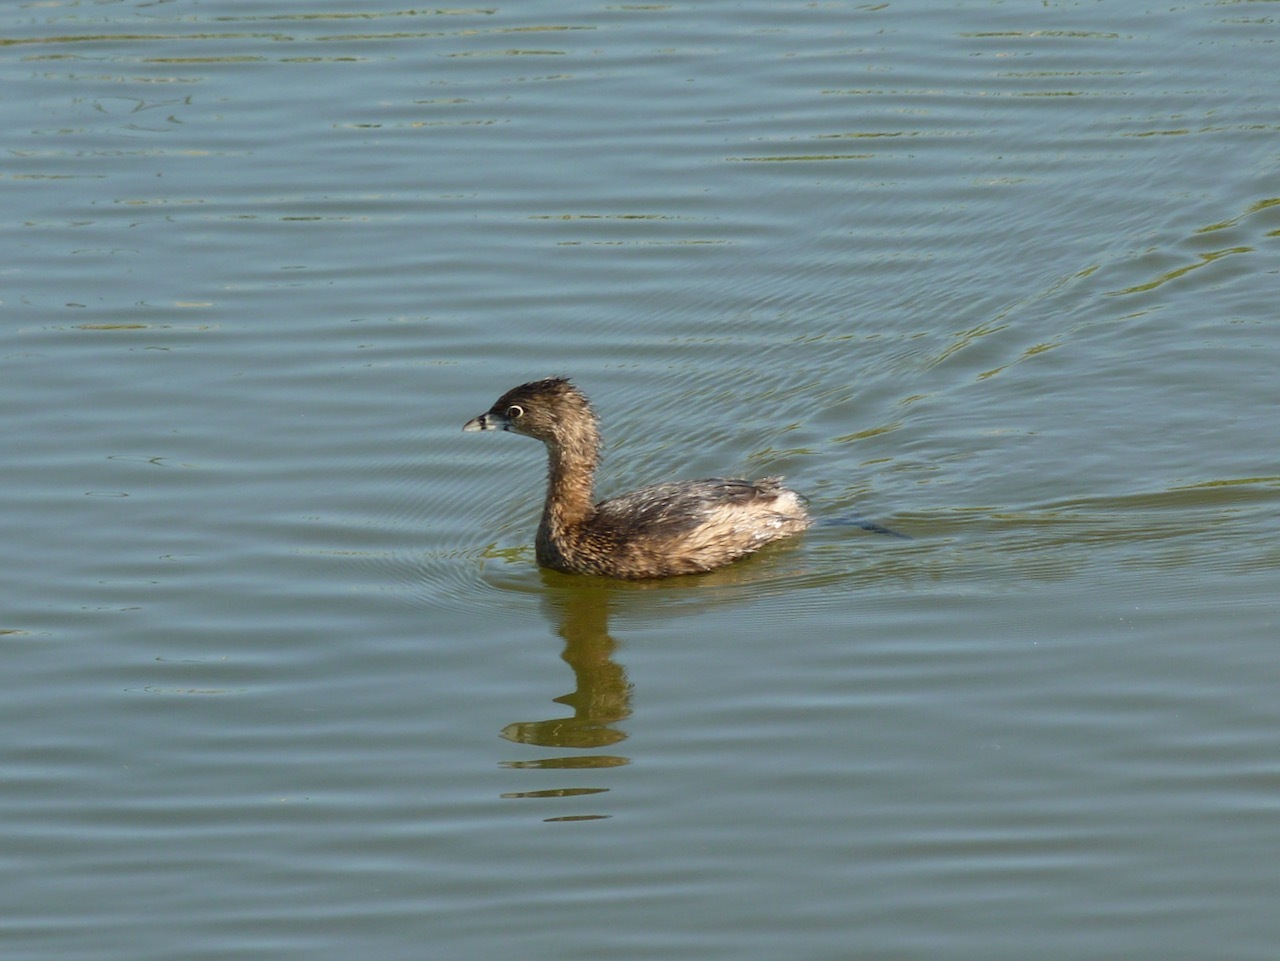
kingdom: Animalia
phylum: Chordata
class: Aves
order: Podicipediformes
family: Podicipedidae
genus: Podilymbus
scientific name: Podilymbus podiceps
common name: Pied-billed grebe
